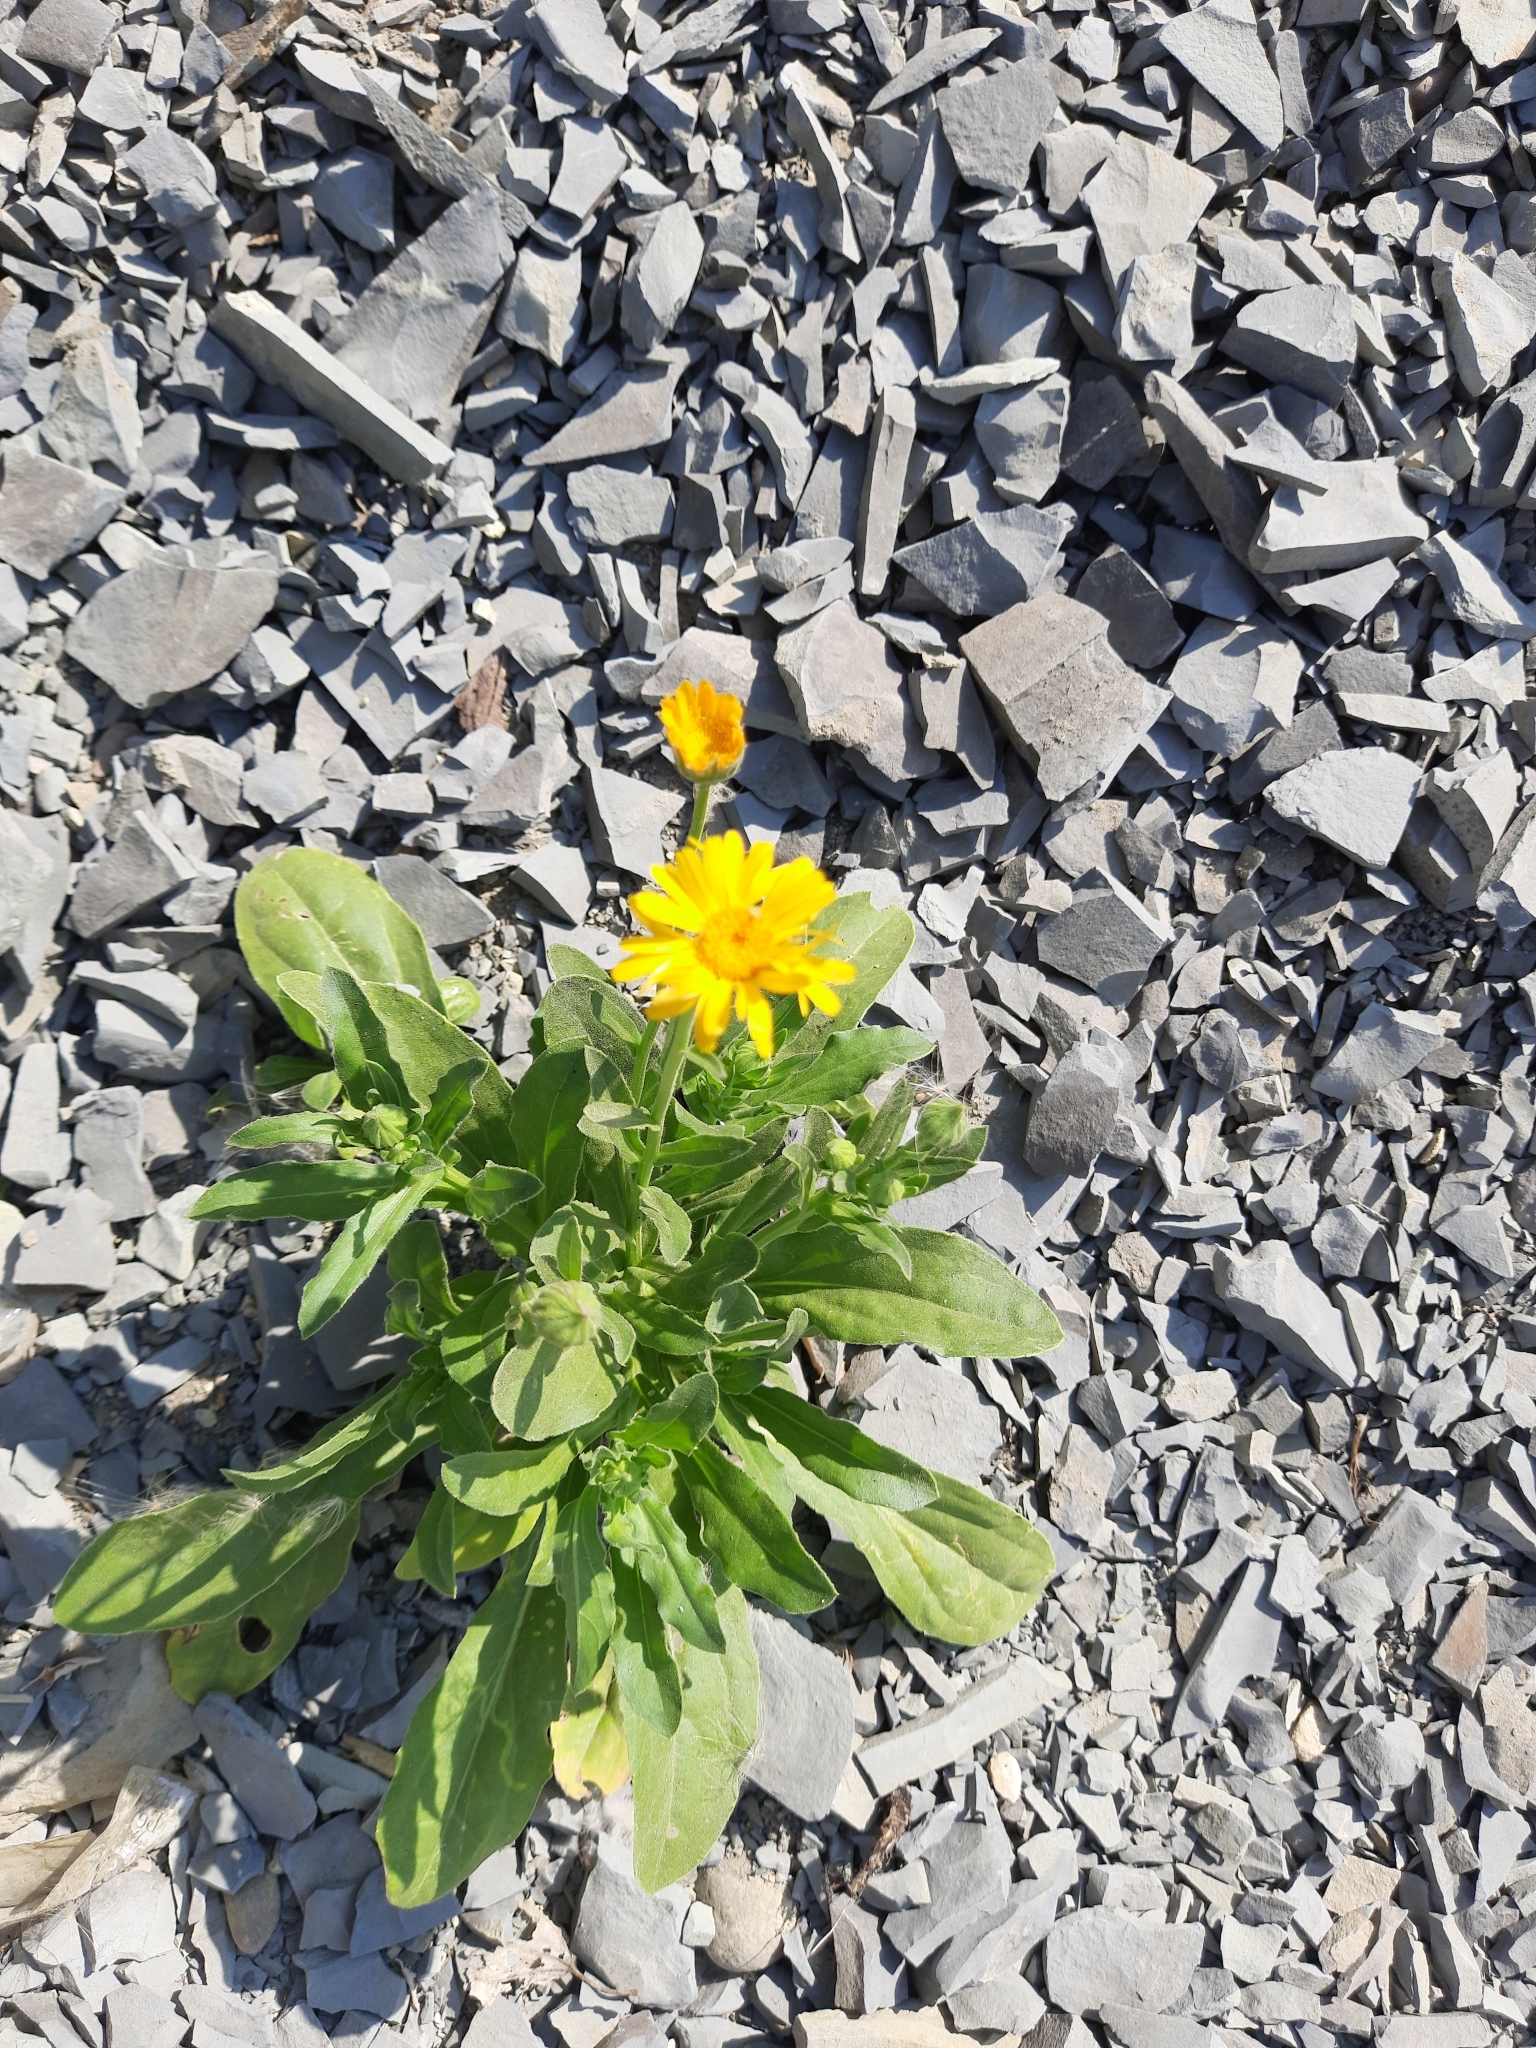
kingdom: Plantae
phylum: Tracheophyta
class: Magnoliopsida
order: Asterales
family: Asteraceae
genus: Calendula
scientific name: Calendula officinalis
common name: Pot marigold
